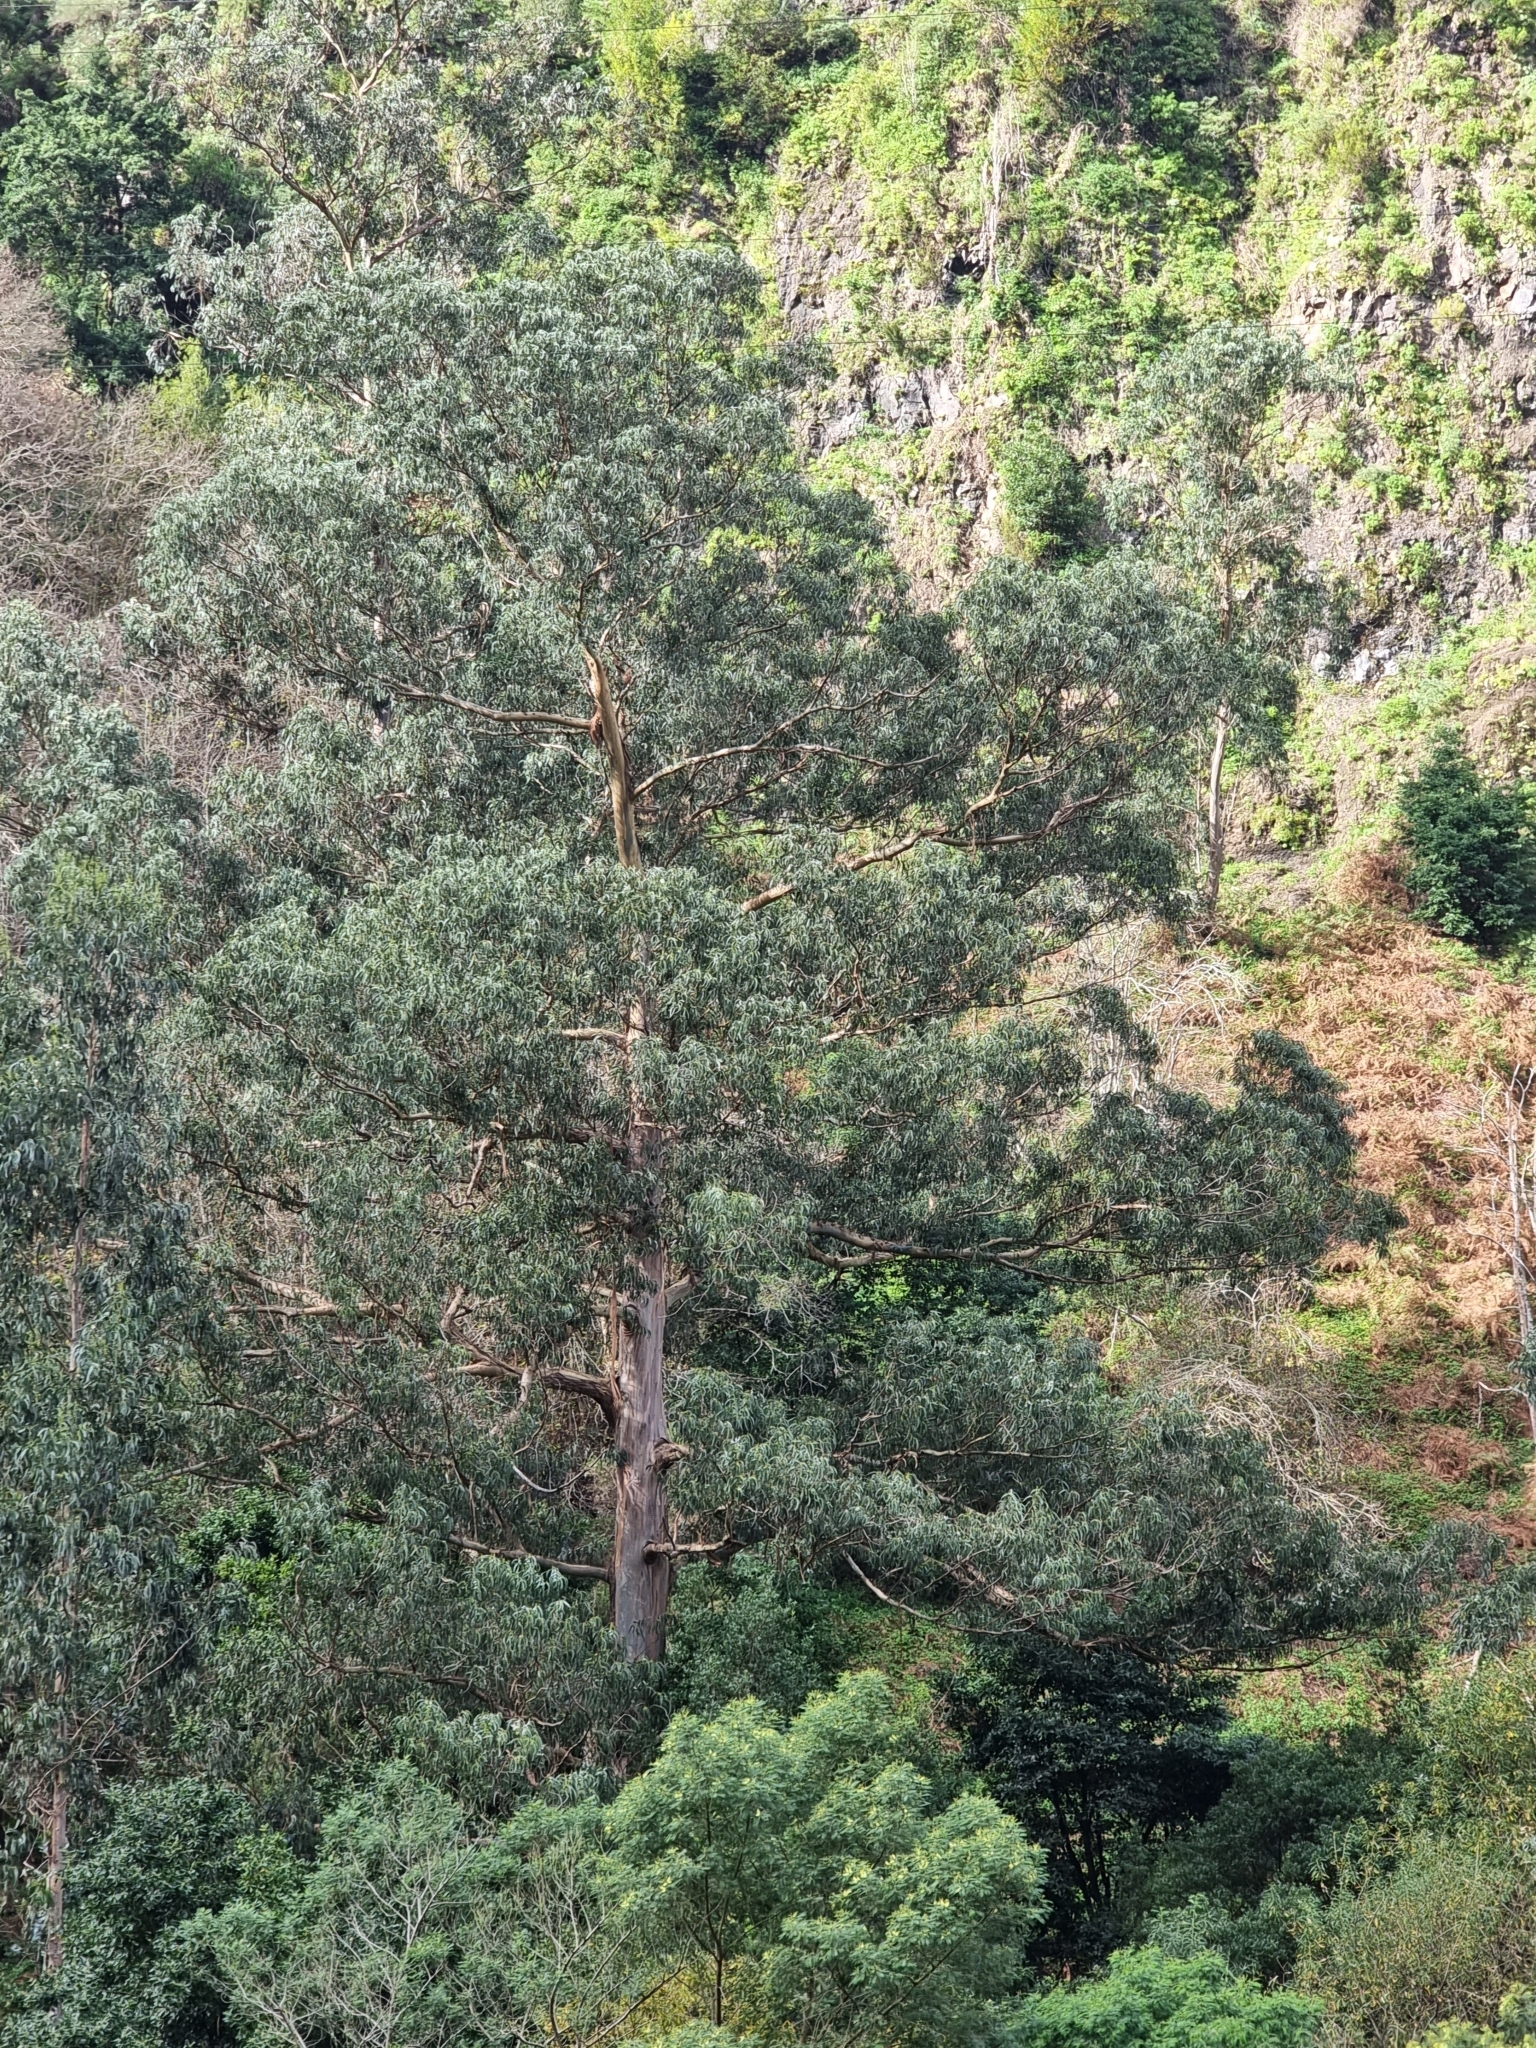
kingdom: Plantae
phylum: Tracheophyta
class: Magnoliopsida
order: Myrtales
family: Myrtaceae
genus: Eucalyptus
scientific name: Eucalyptus globulus
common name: Southern blue-gum
